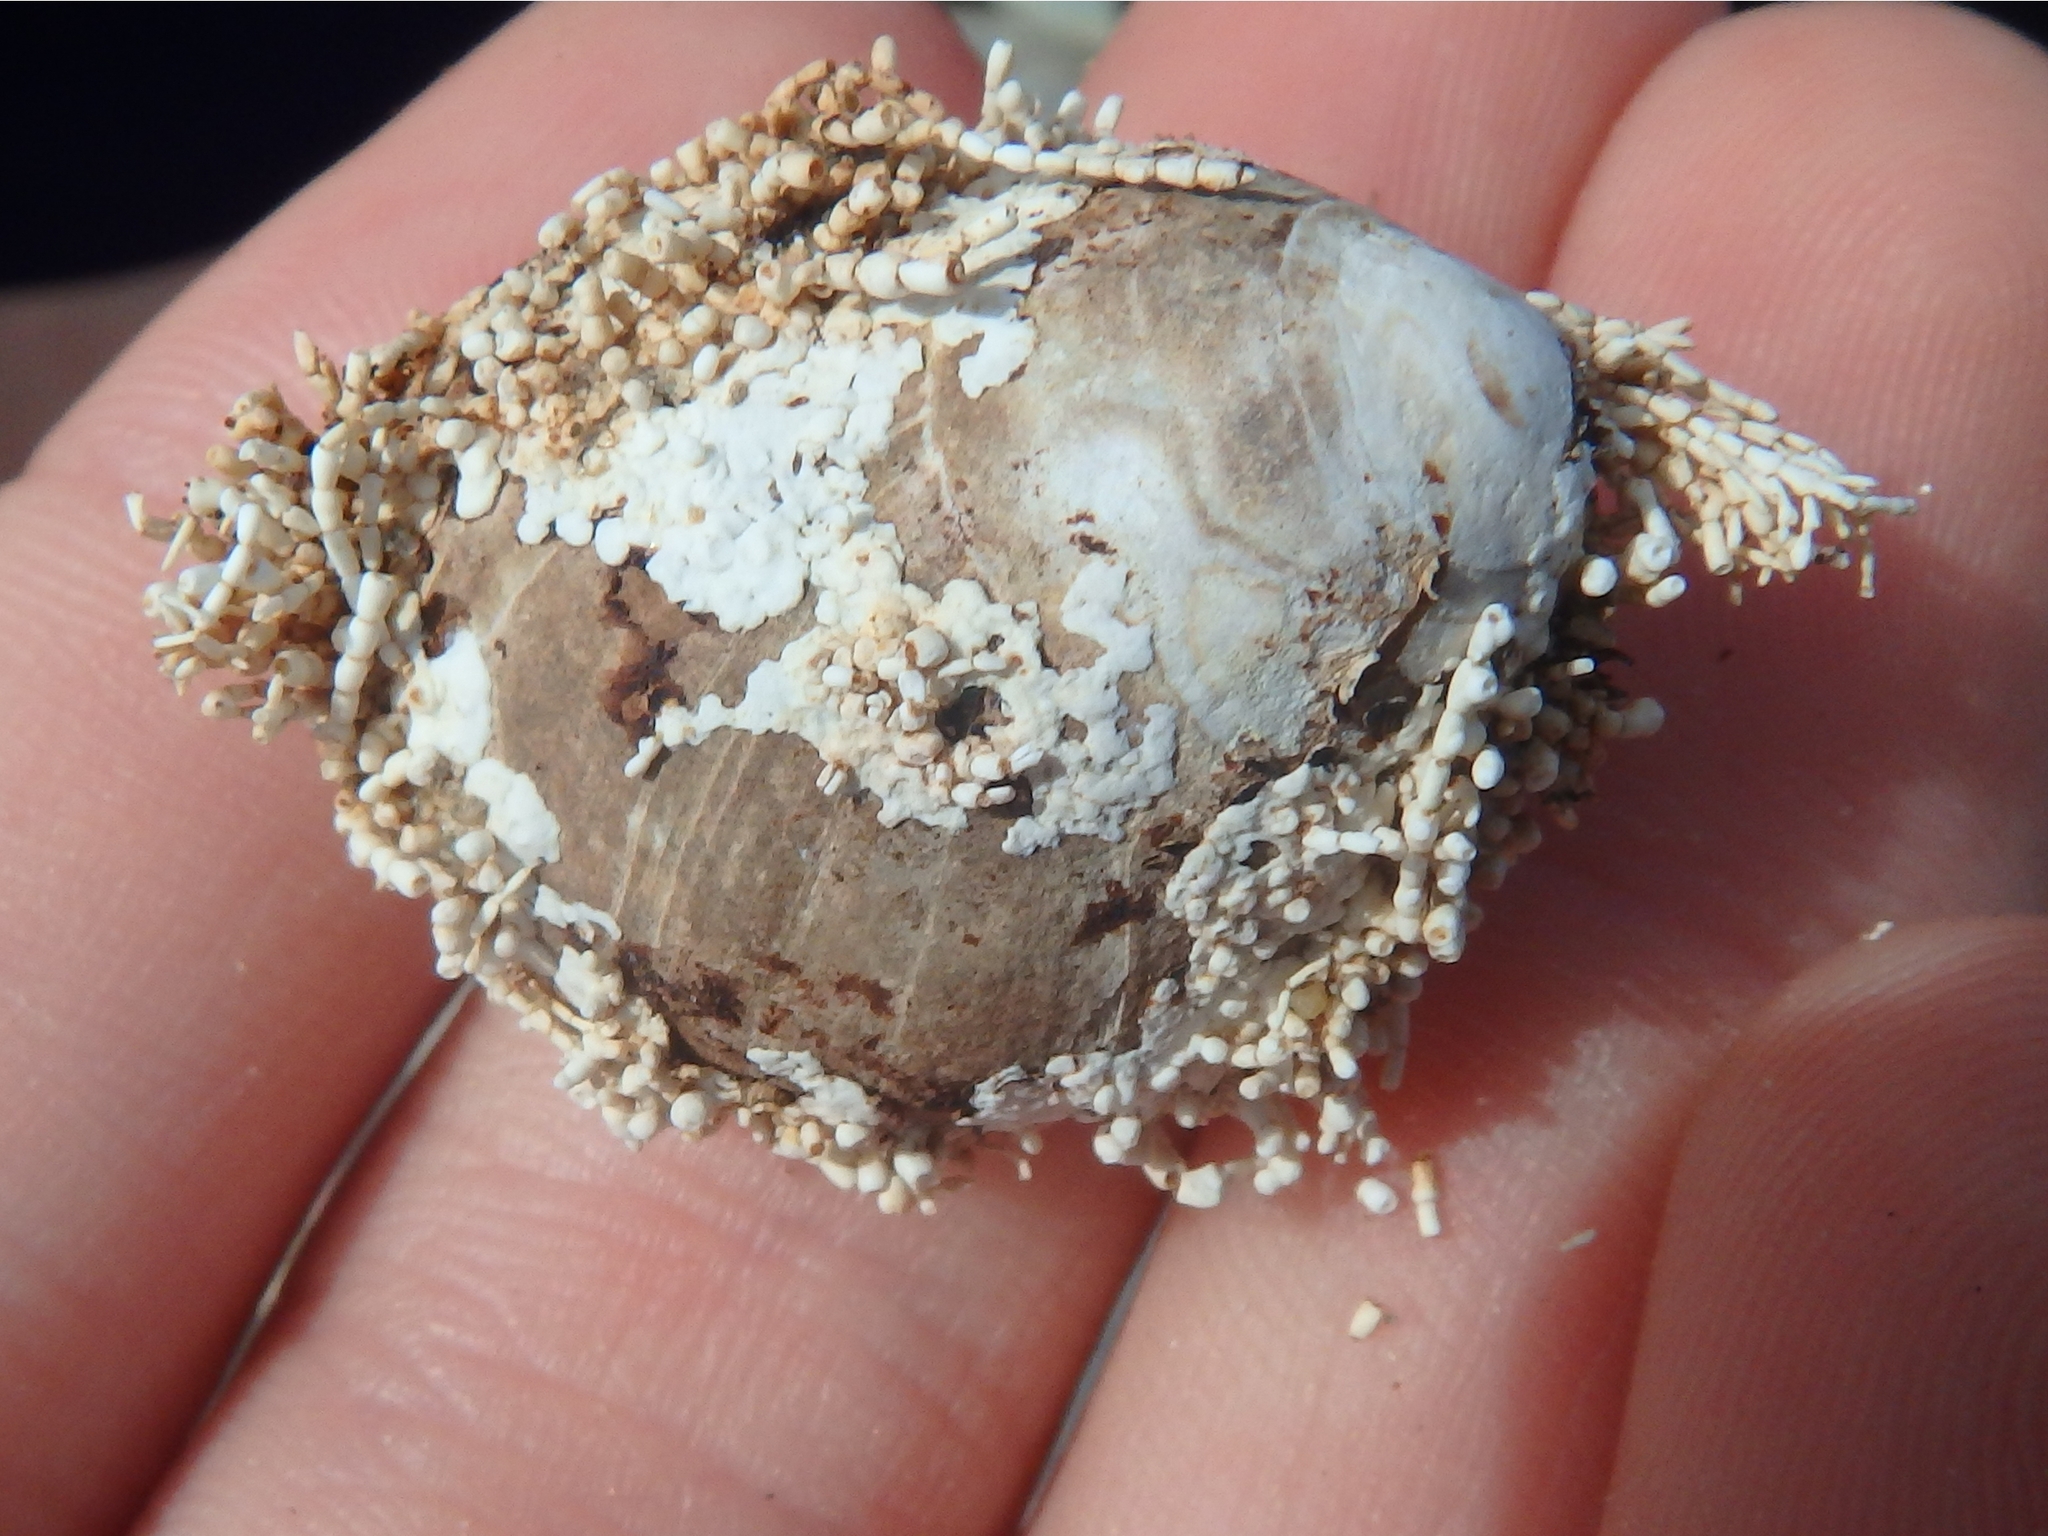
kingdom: Plantae
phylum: Rhodophyta
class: Florideophyceae
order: Corallinales
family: Corallinaceae
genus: Corallina
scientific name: Corallina officinalis
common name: Coral weed
